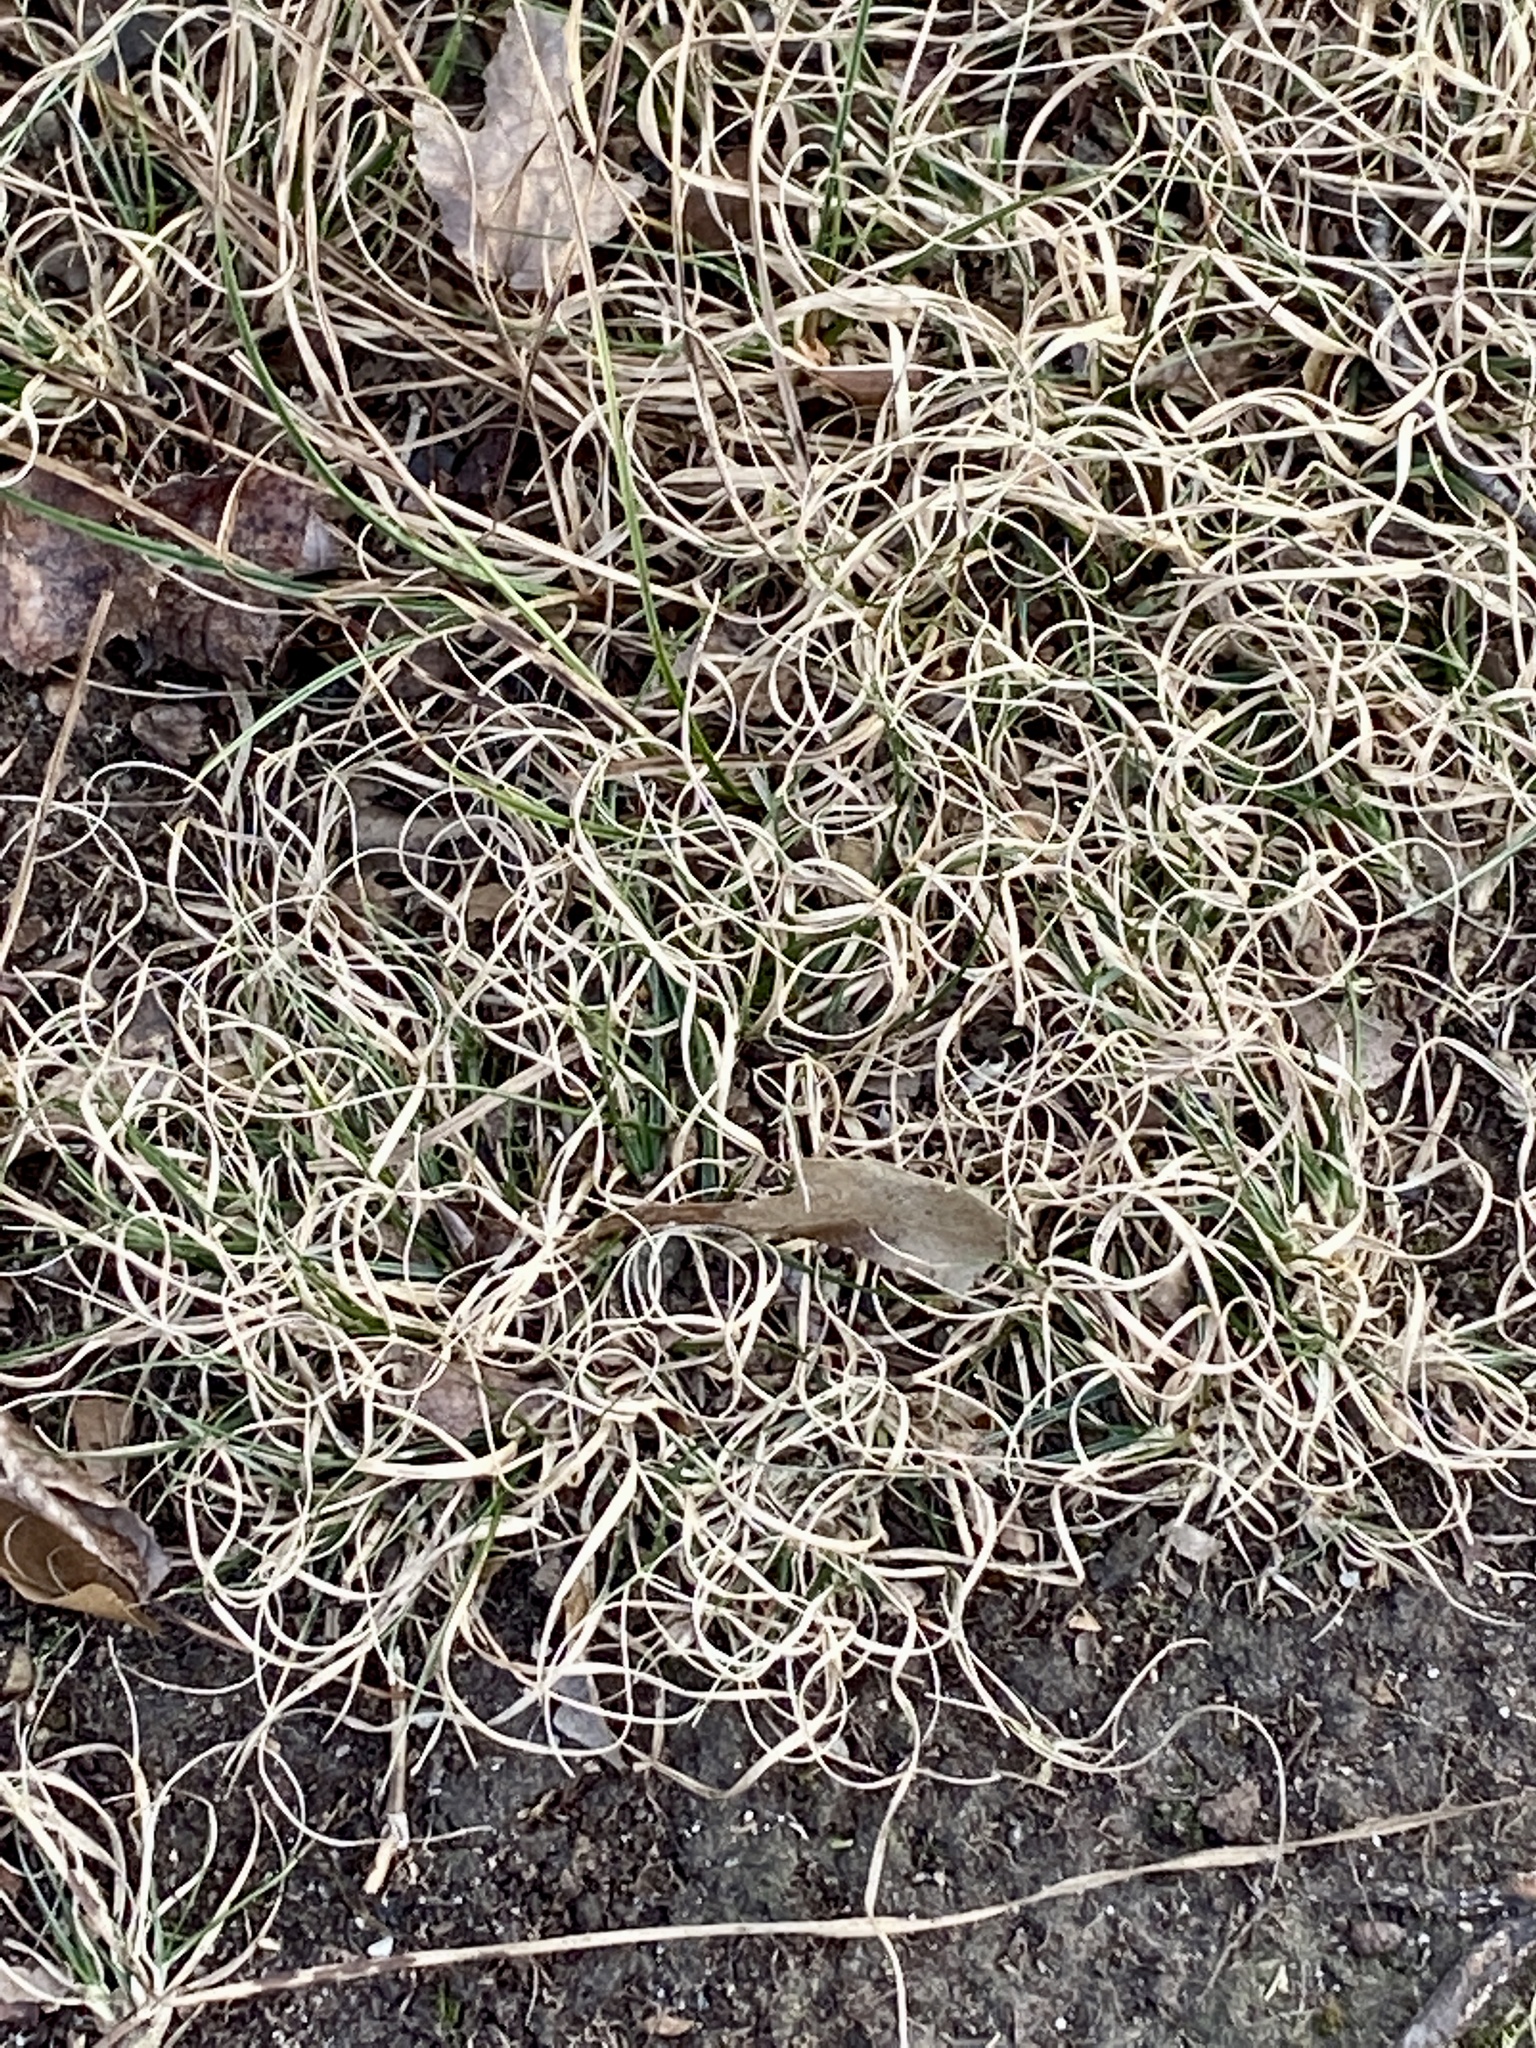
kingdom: Plantae
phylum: Tracheophyta
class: Liliopsida
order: Poales
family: Poaceae
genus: Danthonia
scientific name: Danthonia spicata
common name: Common wild oatgrass
